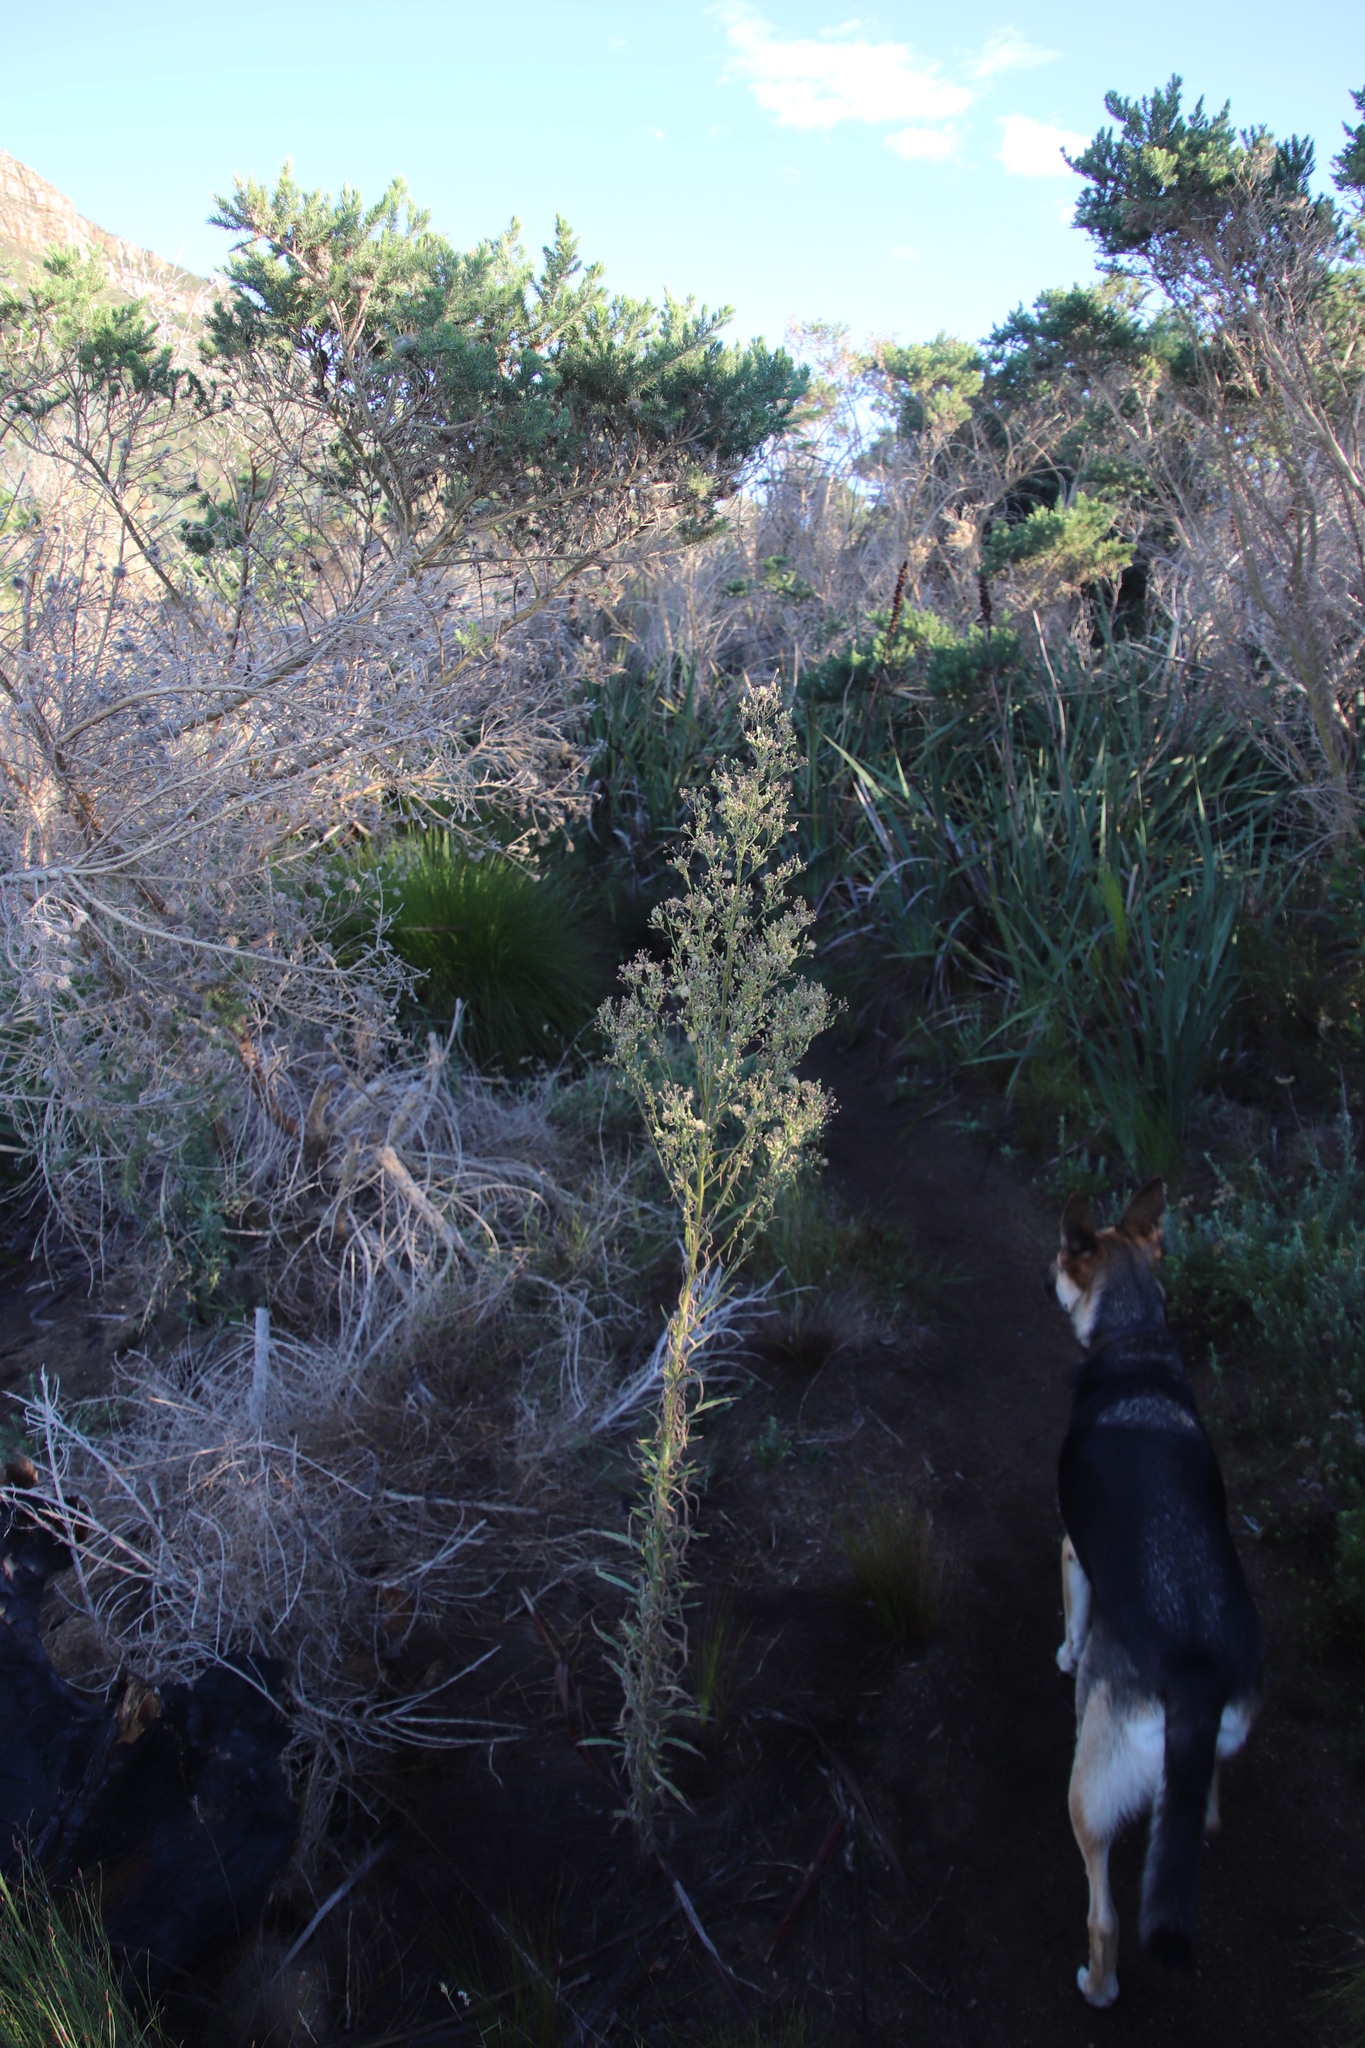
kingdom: Plantae
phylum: Tracheophyta
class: Magnoliopsida
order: Asterales
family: Asteraceae
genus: Erigeron
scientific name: Erigeron sumatrensis
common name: Daisy
